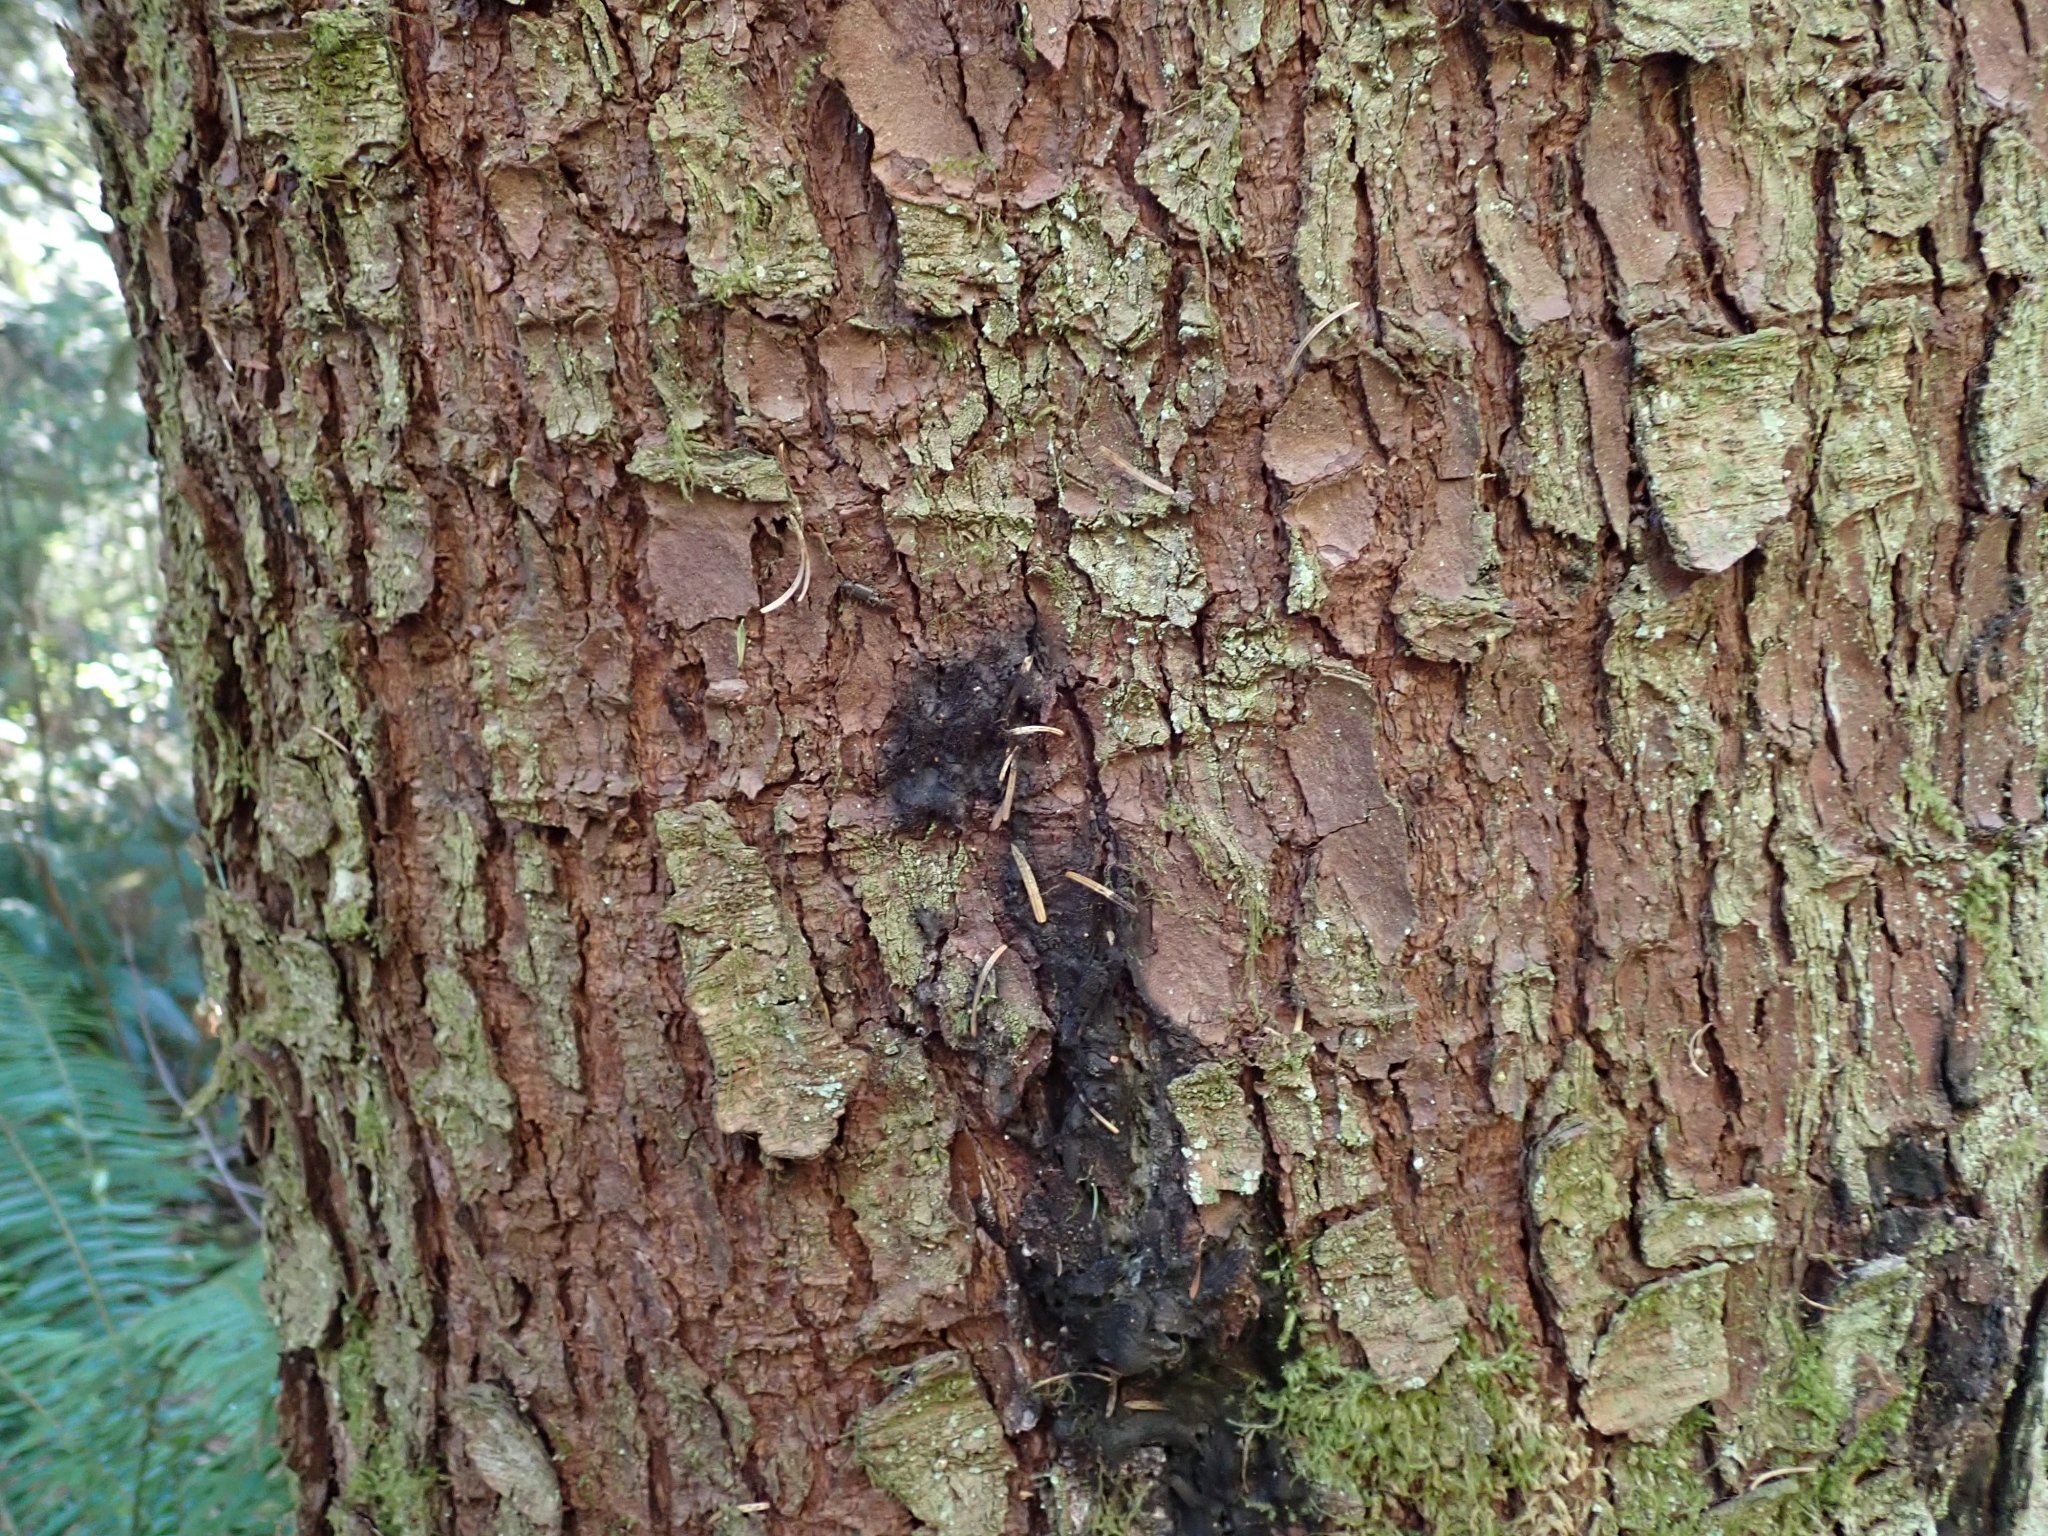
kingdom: Fungi
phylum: Ascomycota
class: Leotiomycetes
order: Helotiales
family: Amorphothecaceae
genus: Sorocybe
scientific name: Sorocybe resinae
